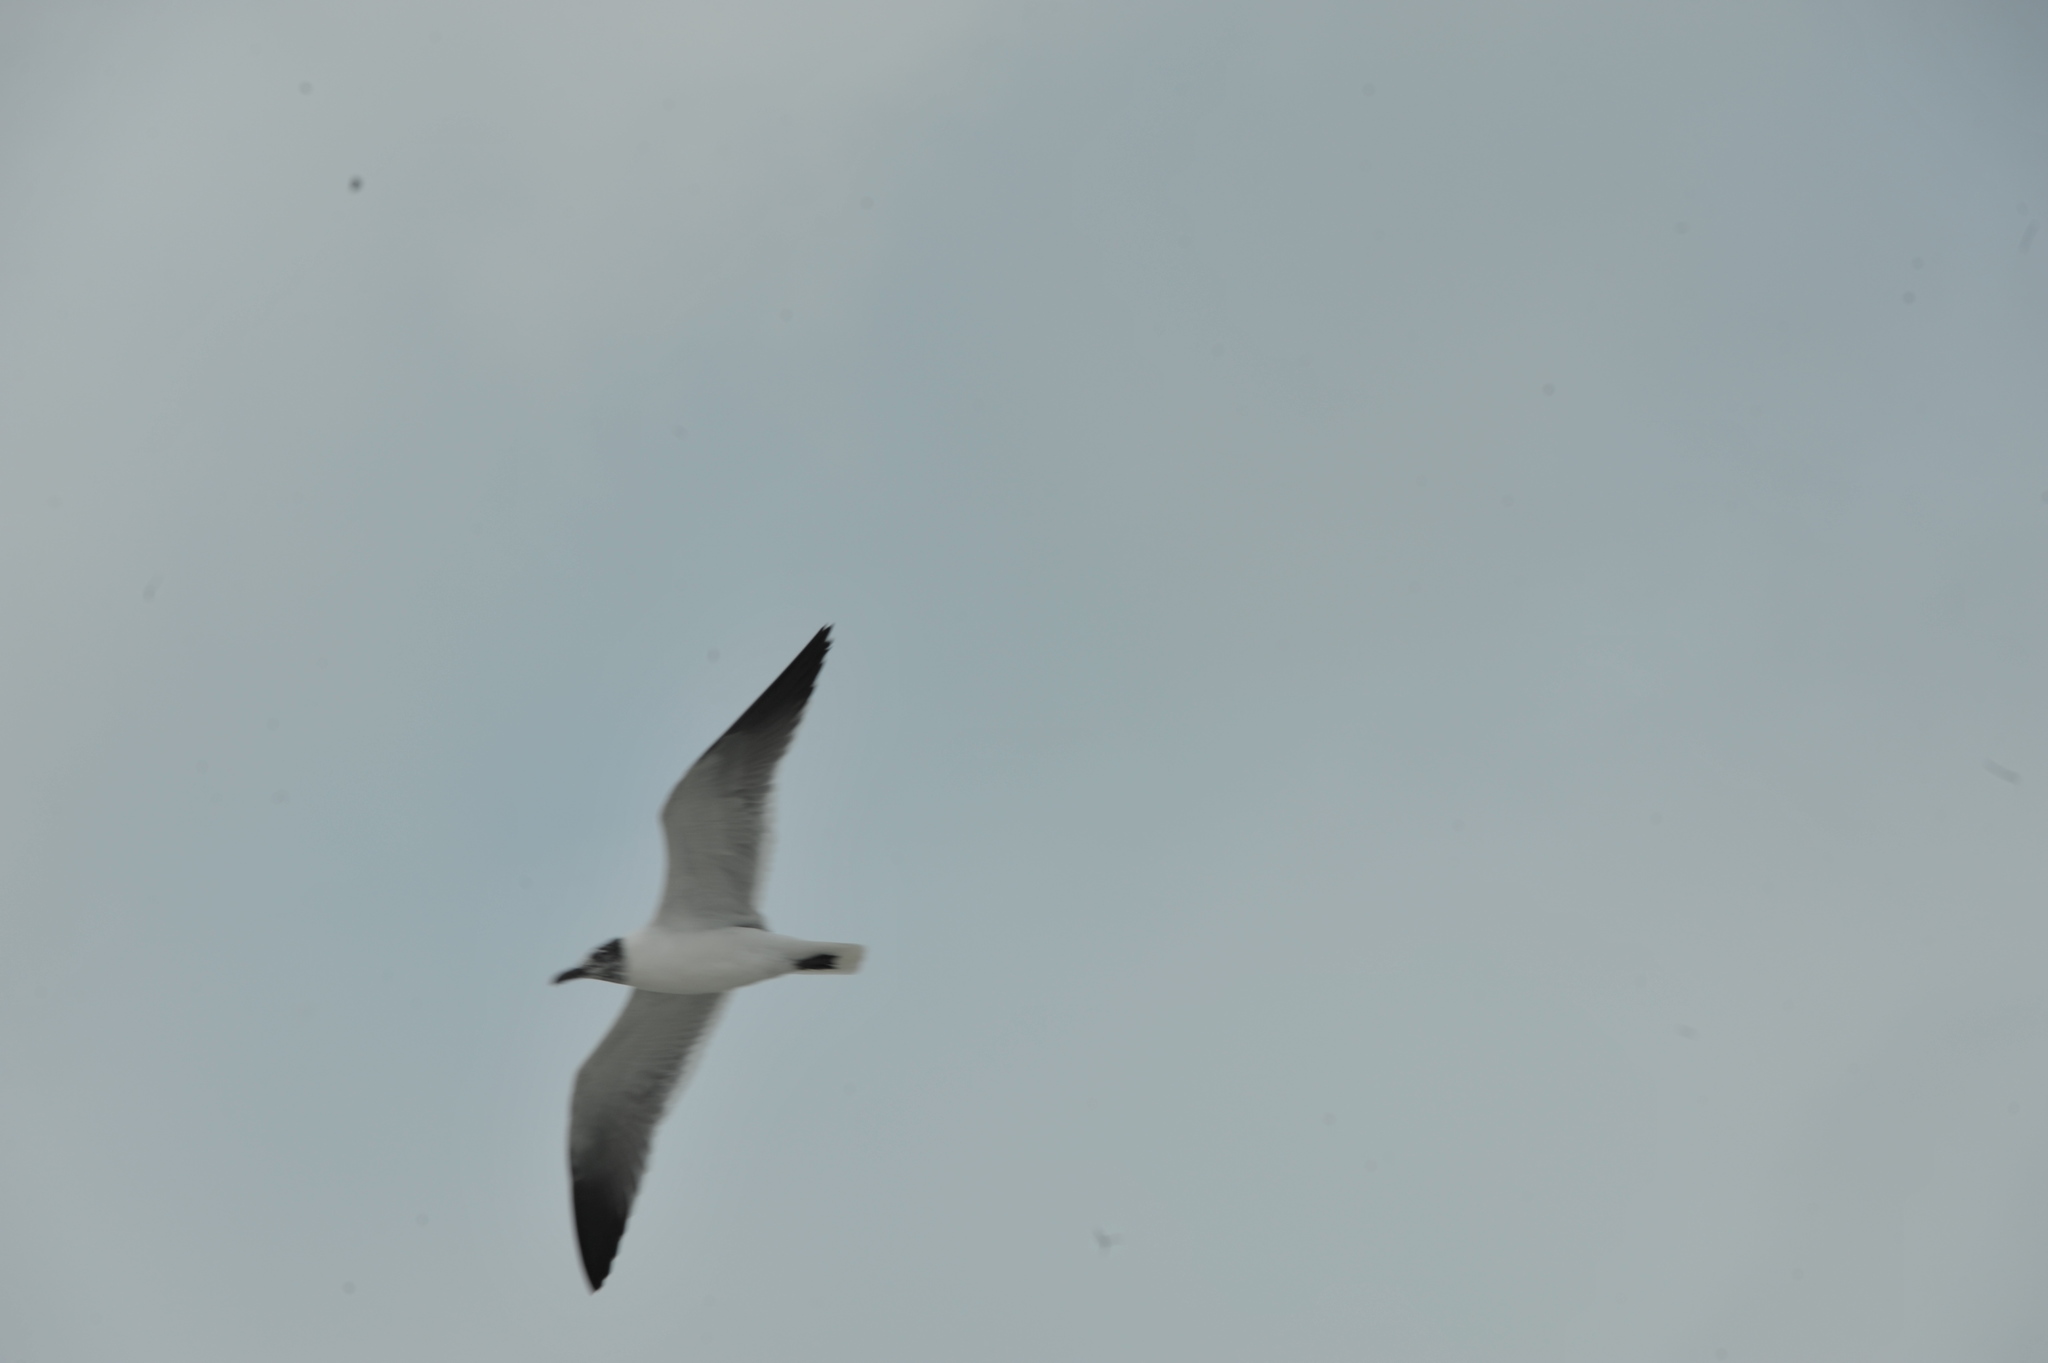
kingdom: Animalia
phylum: Chordata
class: Aves
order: Charadriiformes
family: Laridae
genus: Leucophaeus
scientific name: Leucophaeus atricilla
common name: Laughing gull
